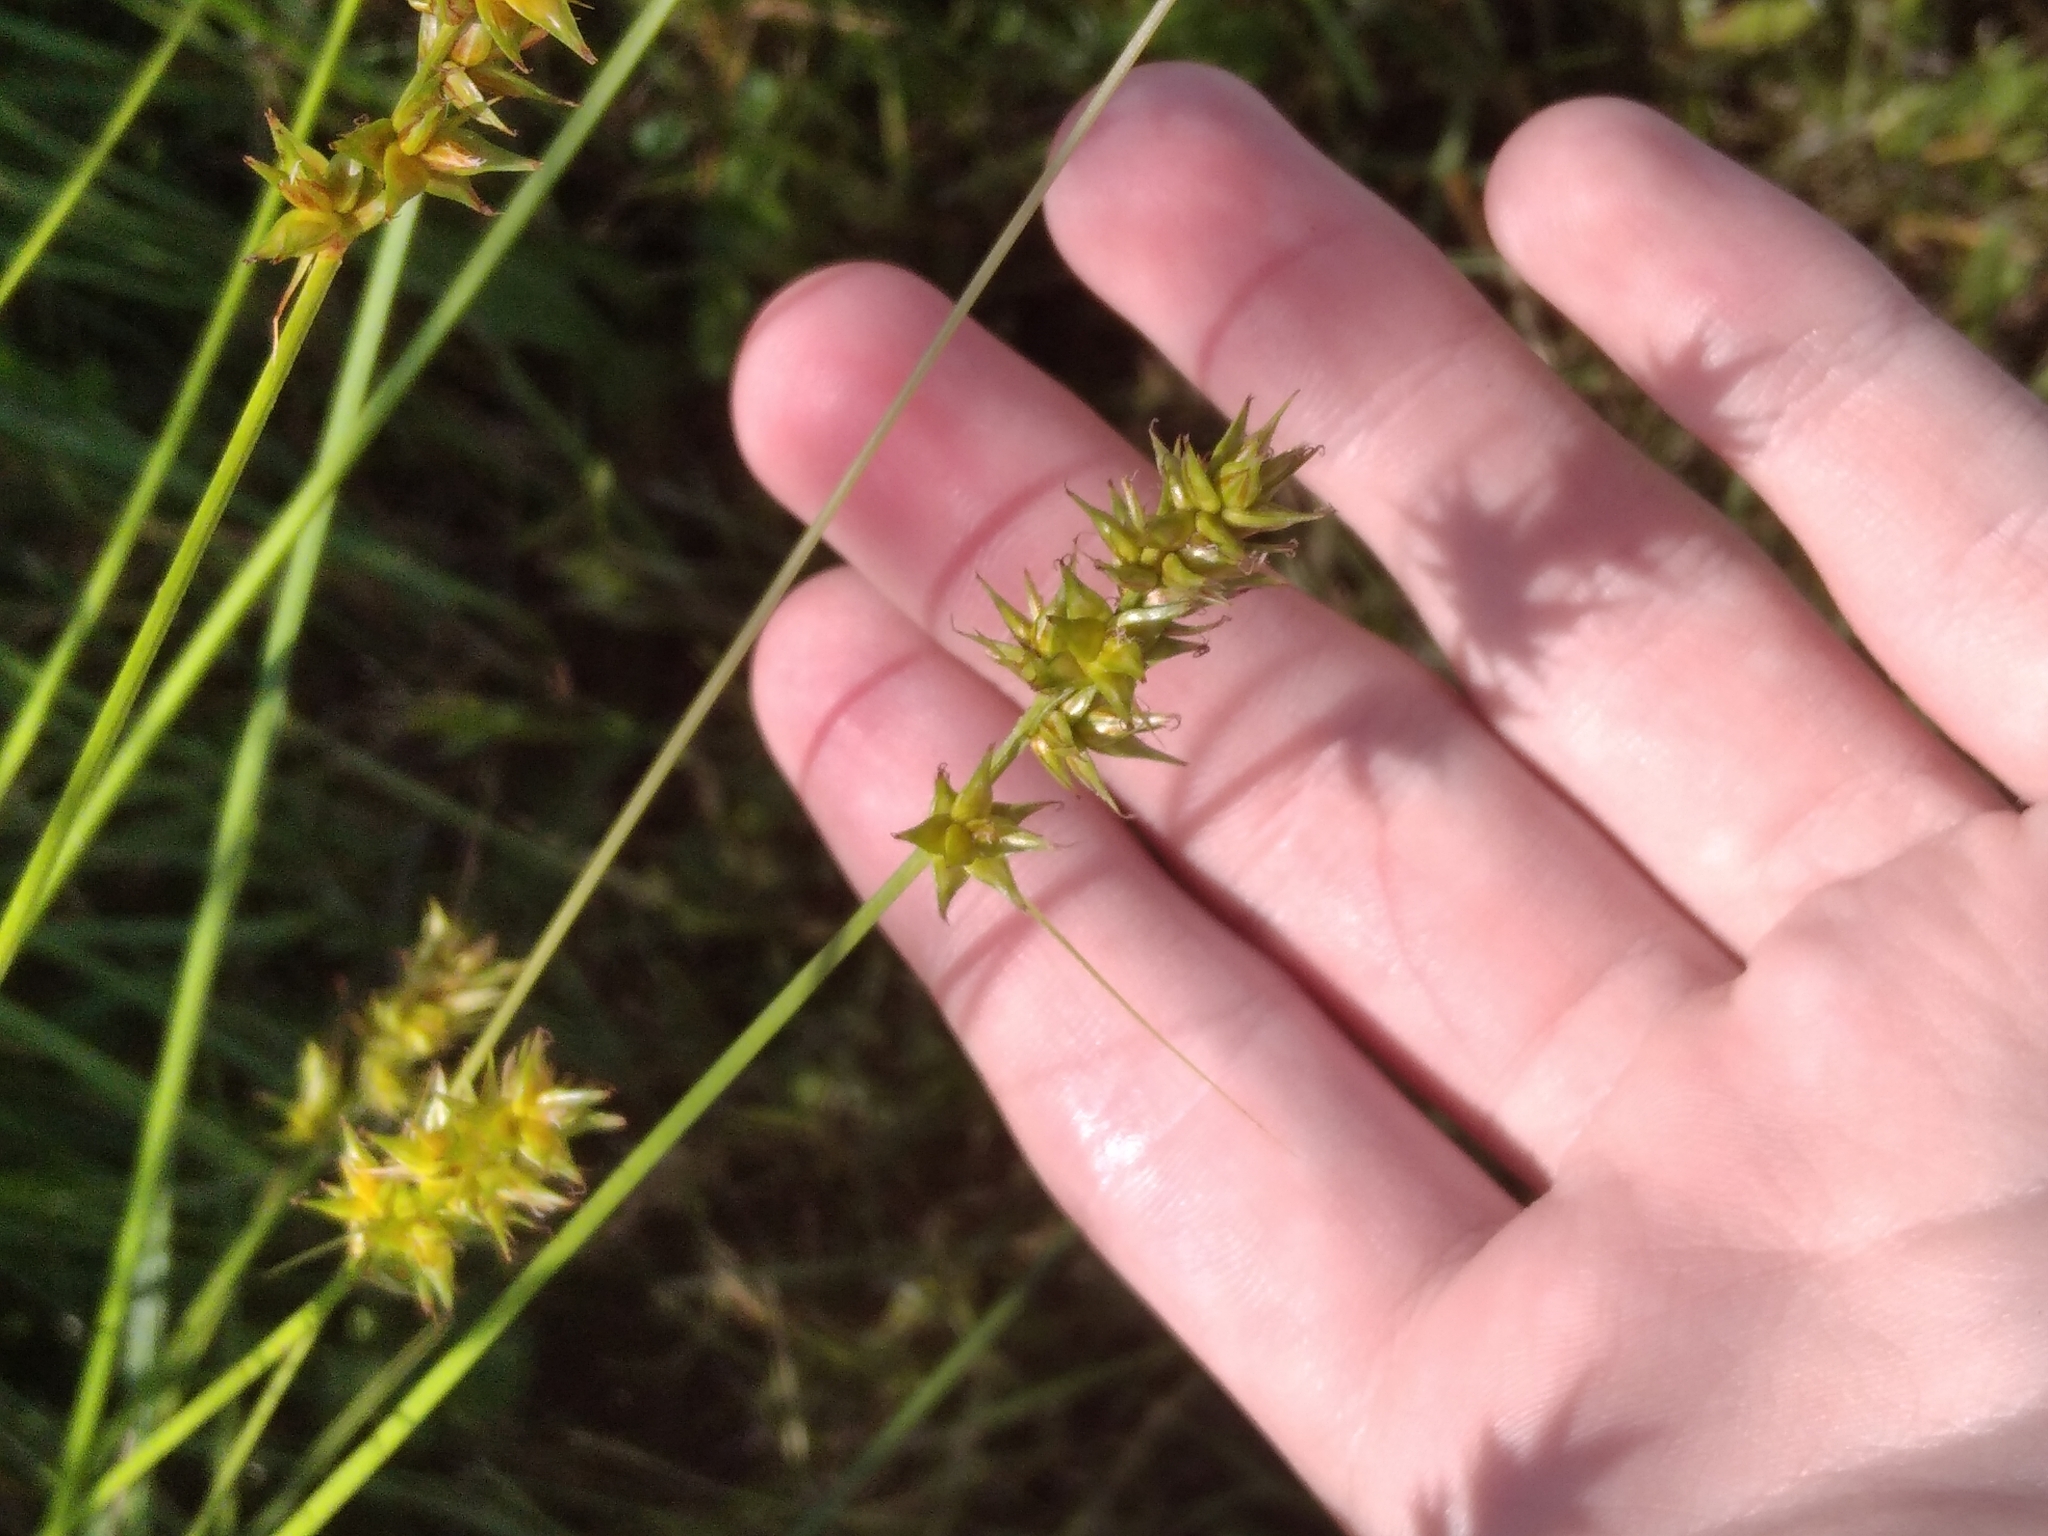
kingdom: Plantae
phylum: Tracheophyta
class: Liliopsida
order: Poales
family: Cyperaceae
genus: Carex
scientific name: Carex spicata
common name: Spiked sedge
